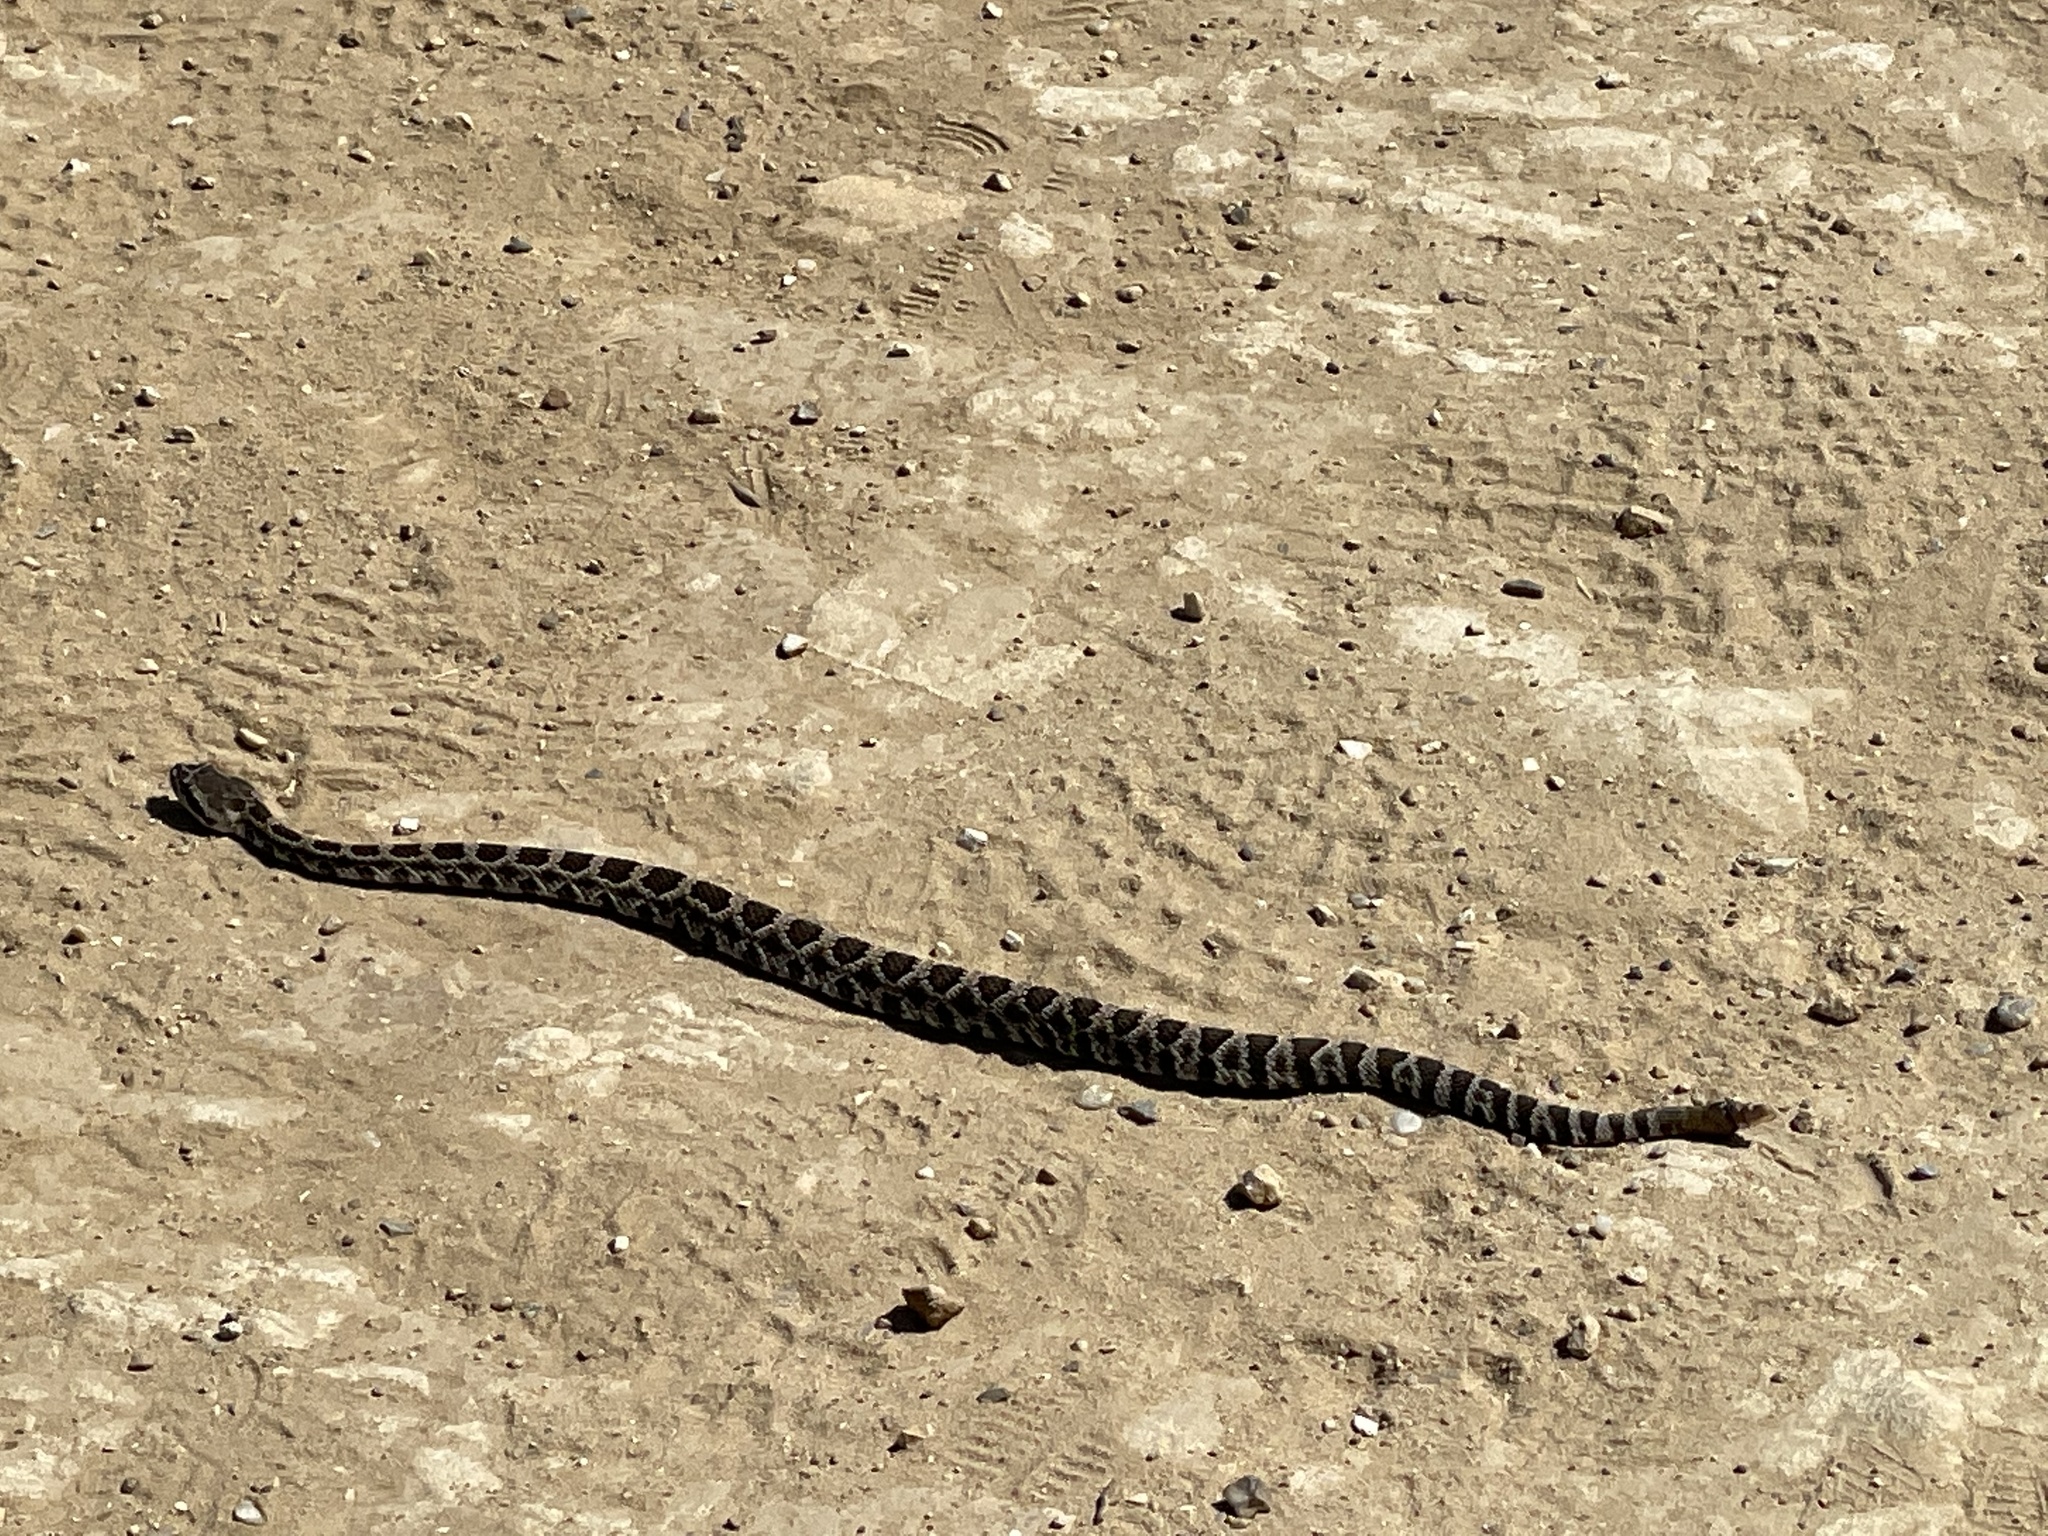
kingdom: Animalia
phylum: Chordata
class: Squamata
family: Viperidae
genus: Crotalus
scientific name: Crotalus oreganus
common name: Abyssus
